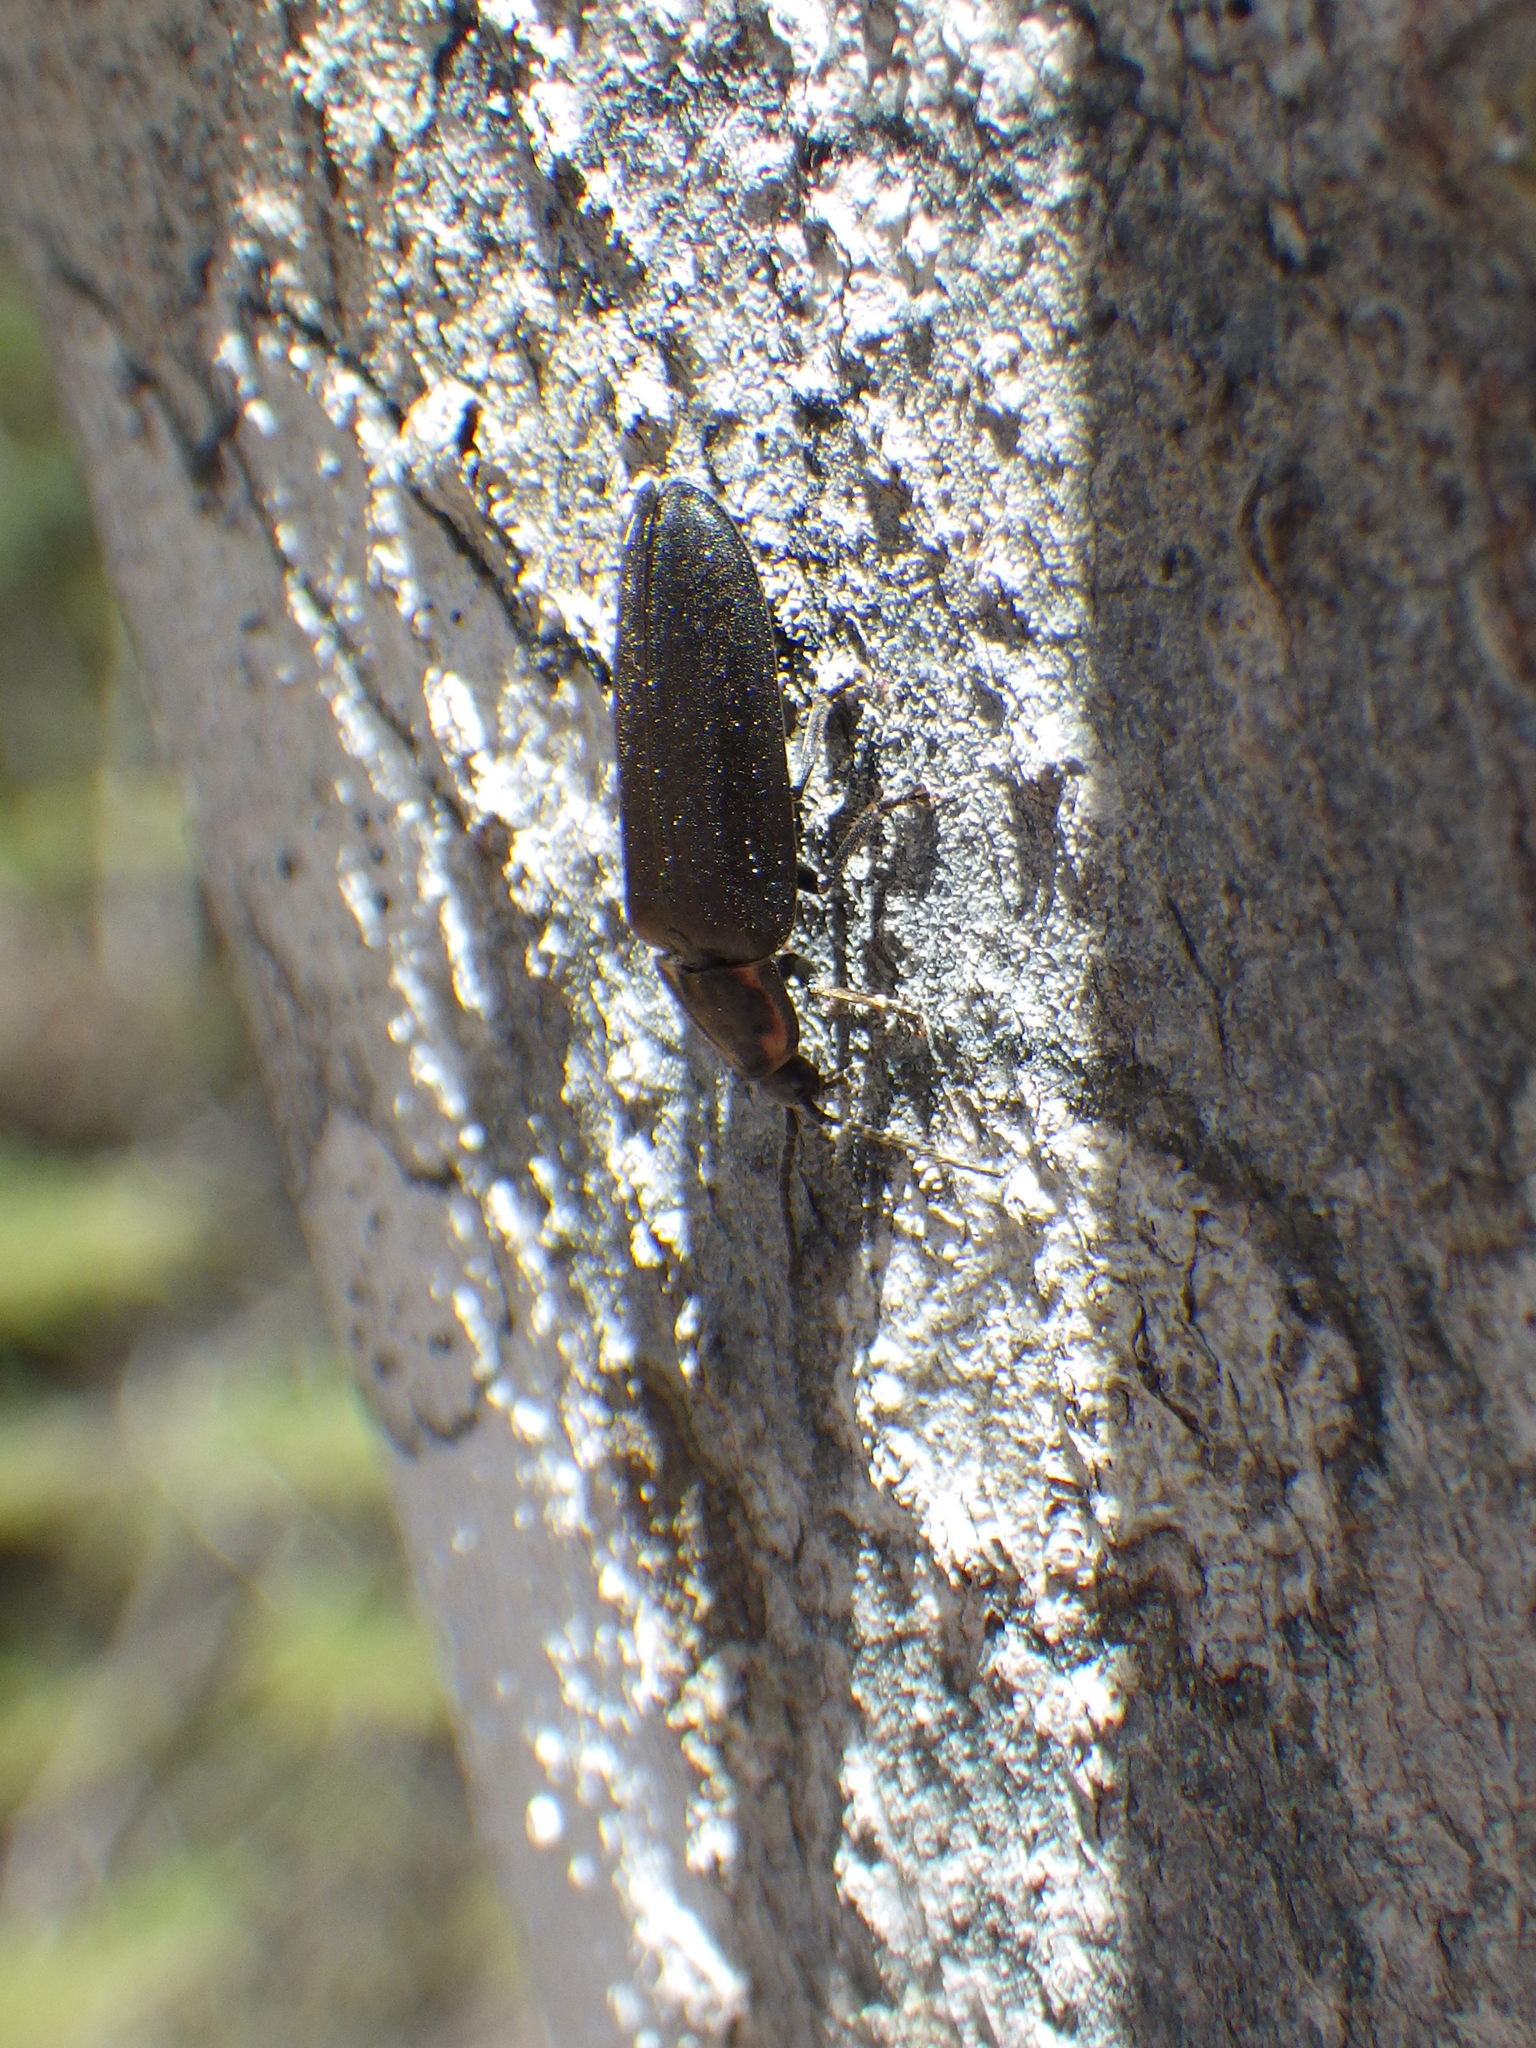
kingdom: Animalia
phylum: Arthropoda
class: Insecta
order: Coleoptera
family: Lampyridae
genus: Photinus
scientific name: Photinus corrusca
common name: Winter firefly
